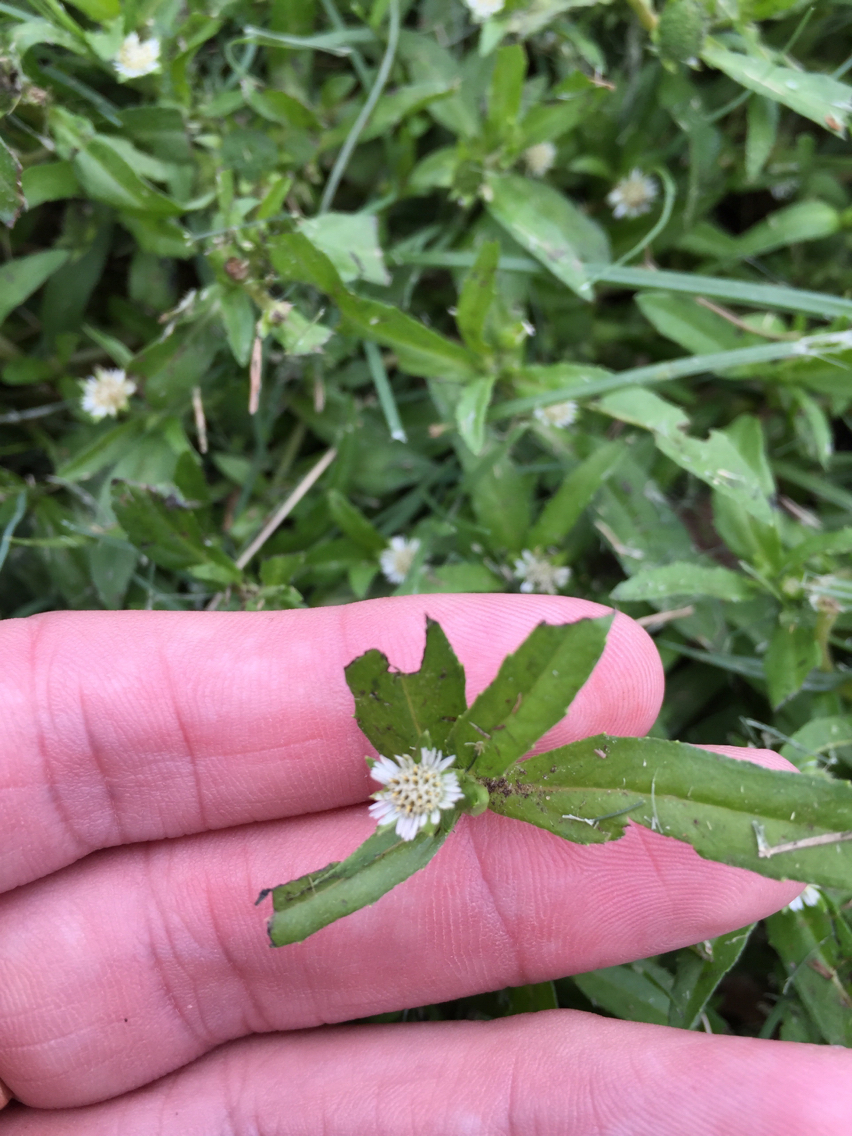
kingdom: Plantae
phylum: Tracheophyta
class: Magnoliopsida
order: Asterales
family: Asteraceae
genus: Eclipta
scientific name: Eclipta prostrata
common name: False daisy
